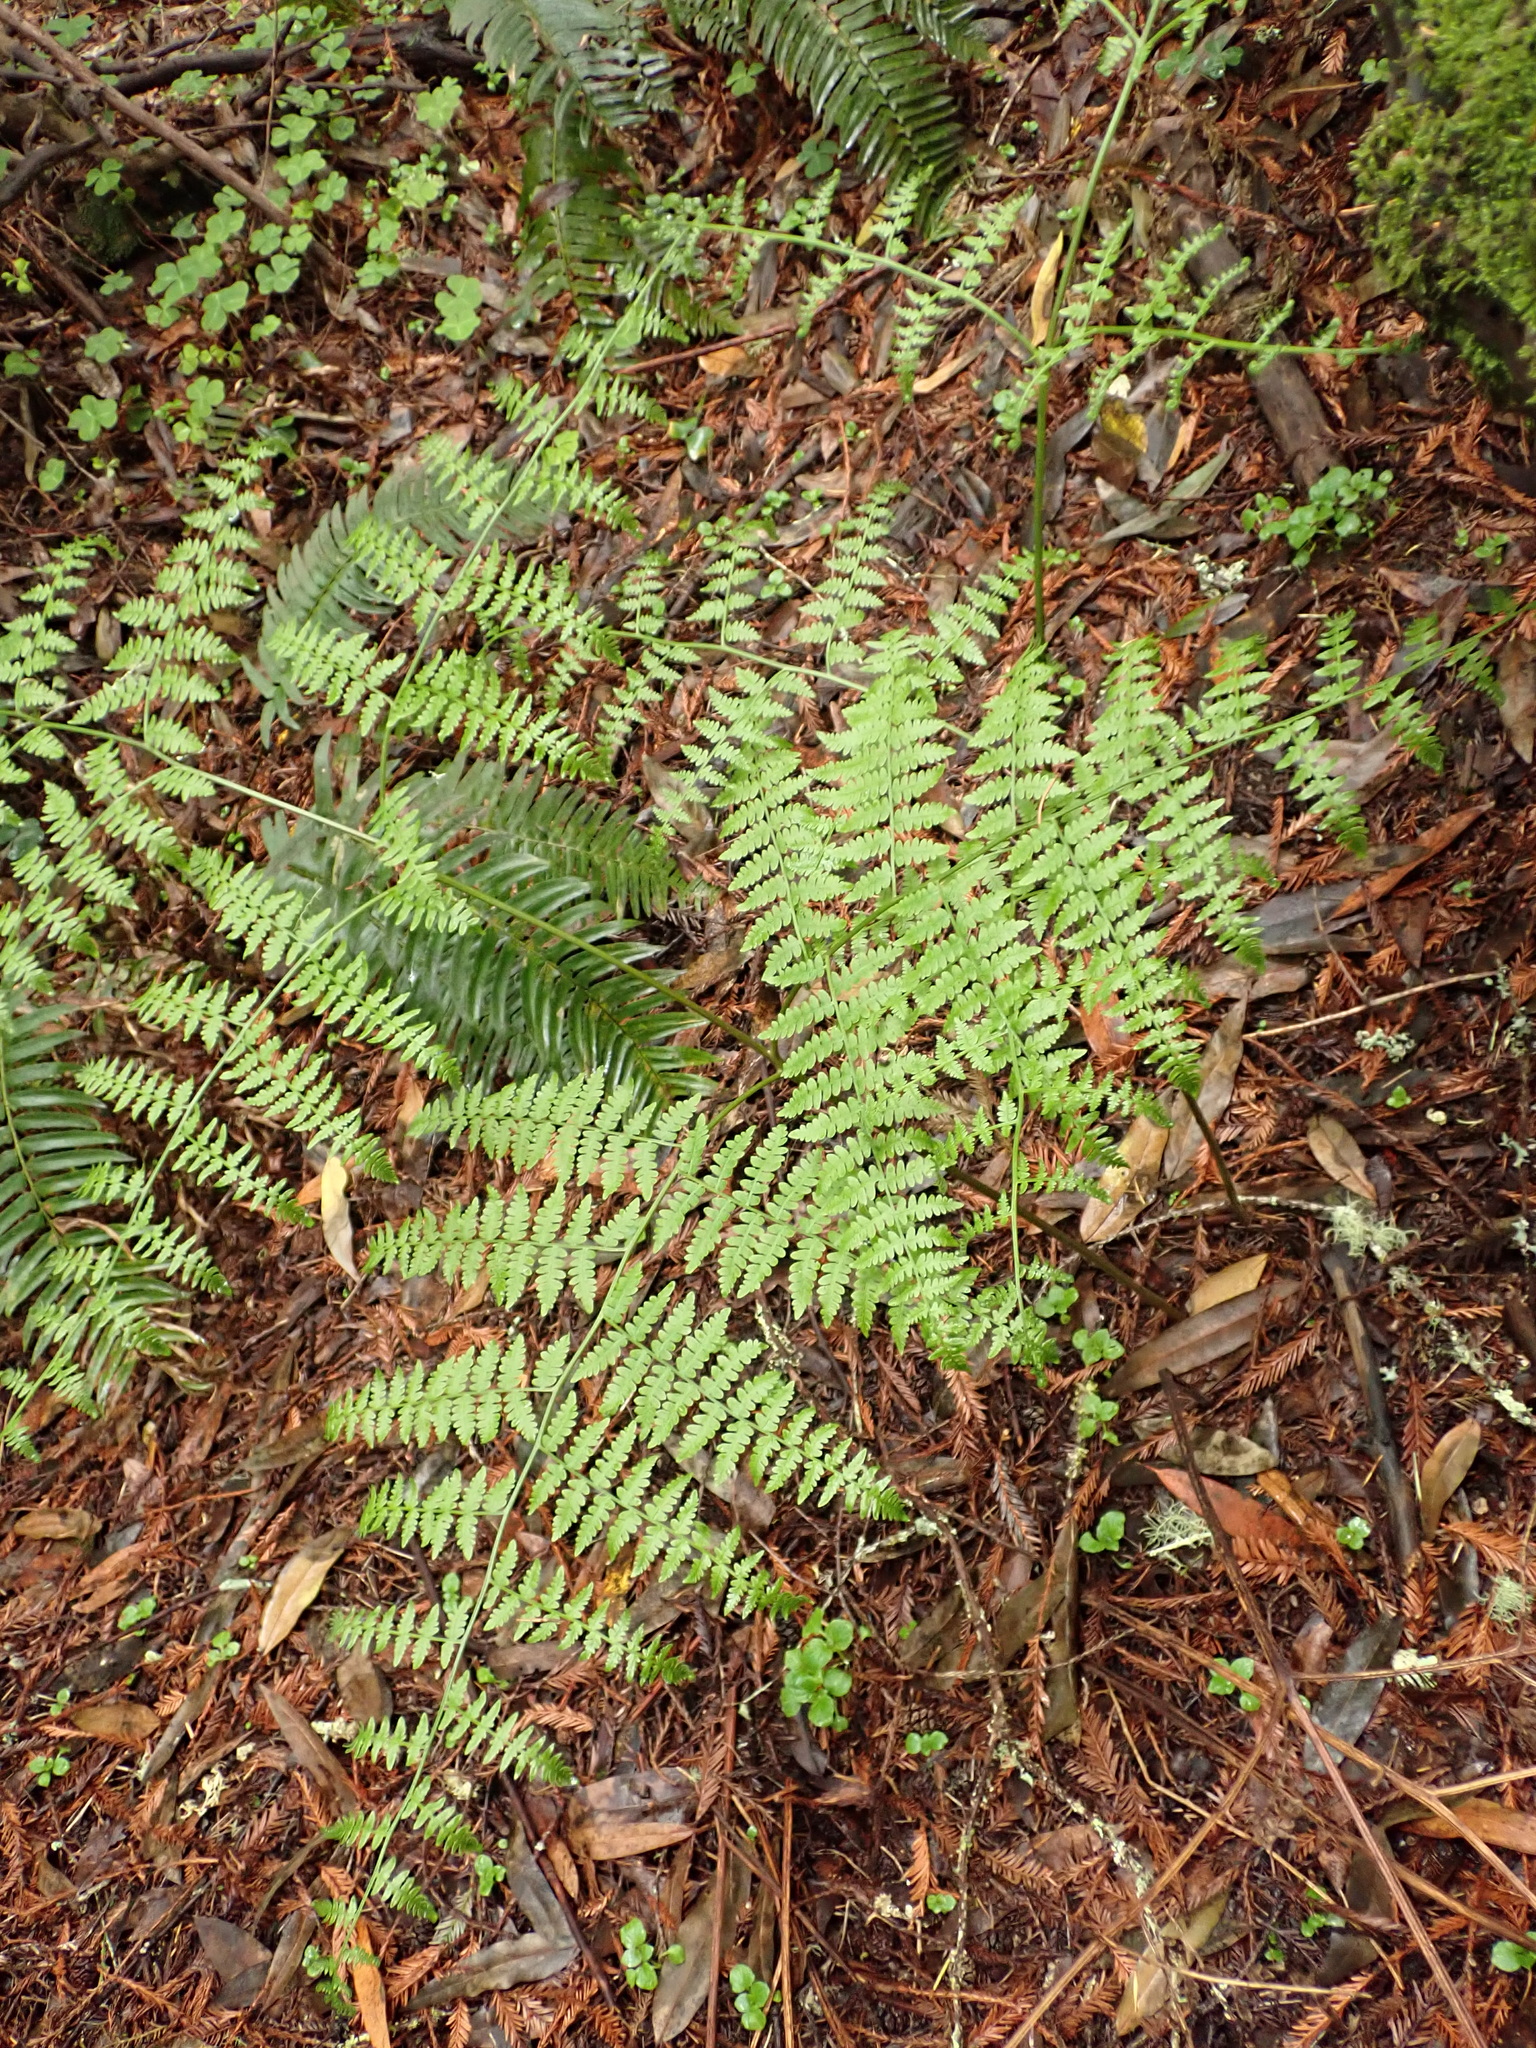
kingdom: Plantae
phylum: Tracheophyta
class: Polypodiopsida
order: Polypodiales
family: Dennstaedtiaceae
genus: Pteridium
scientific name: Pteridium aquilinum
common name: Bracken
